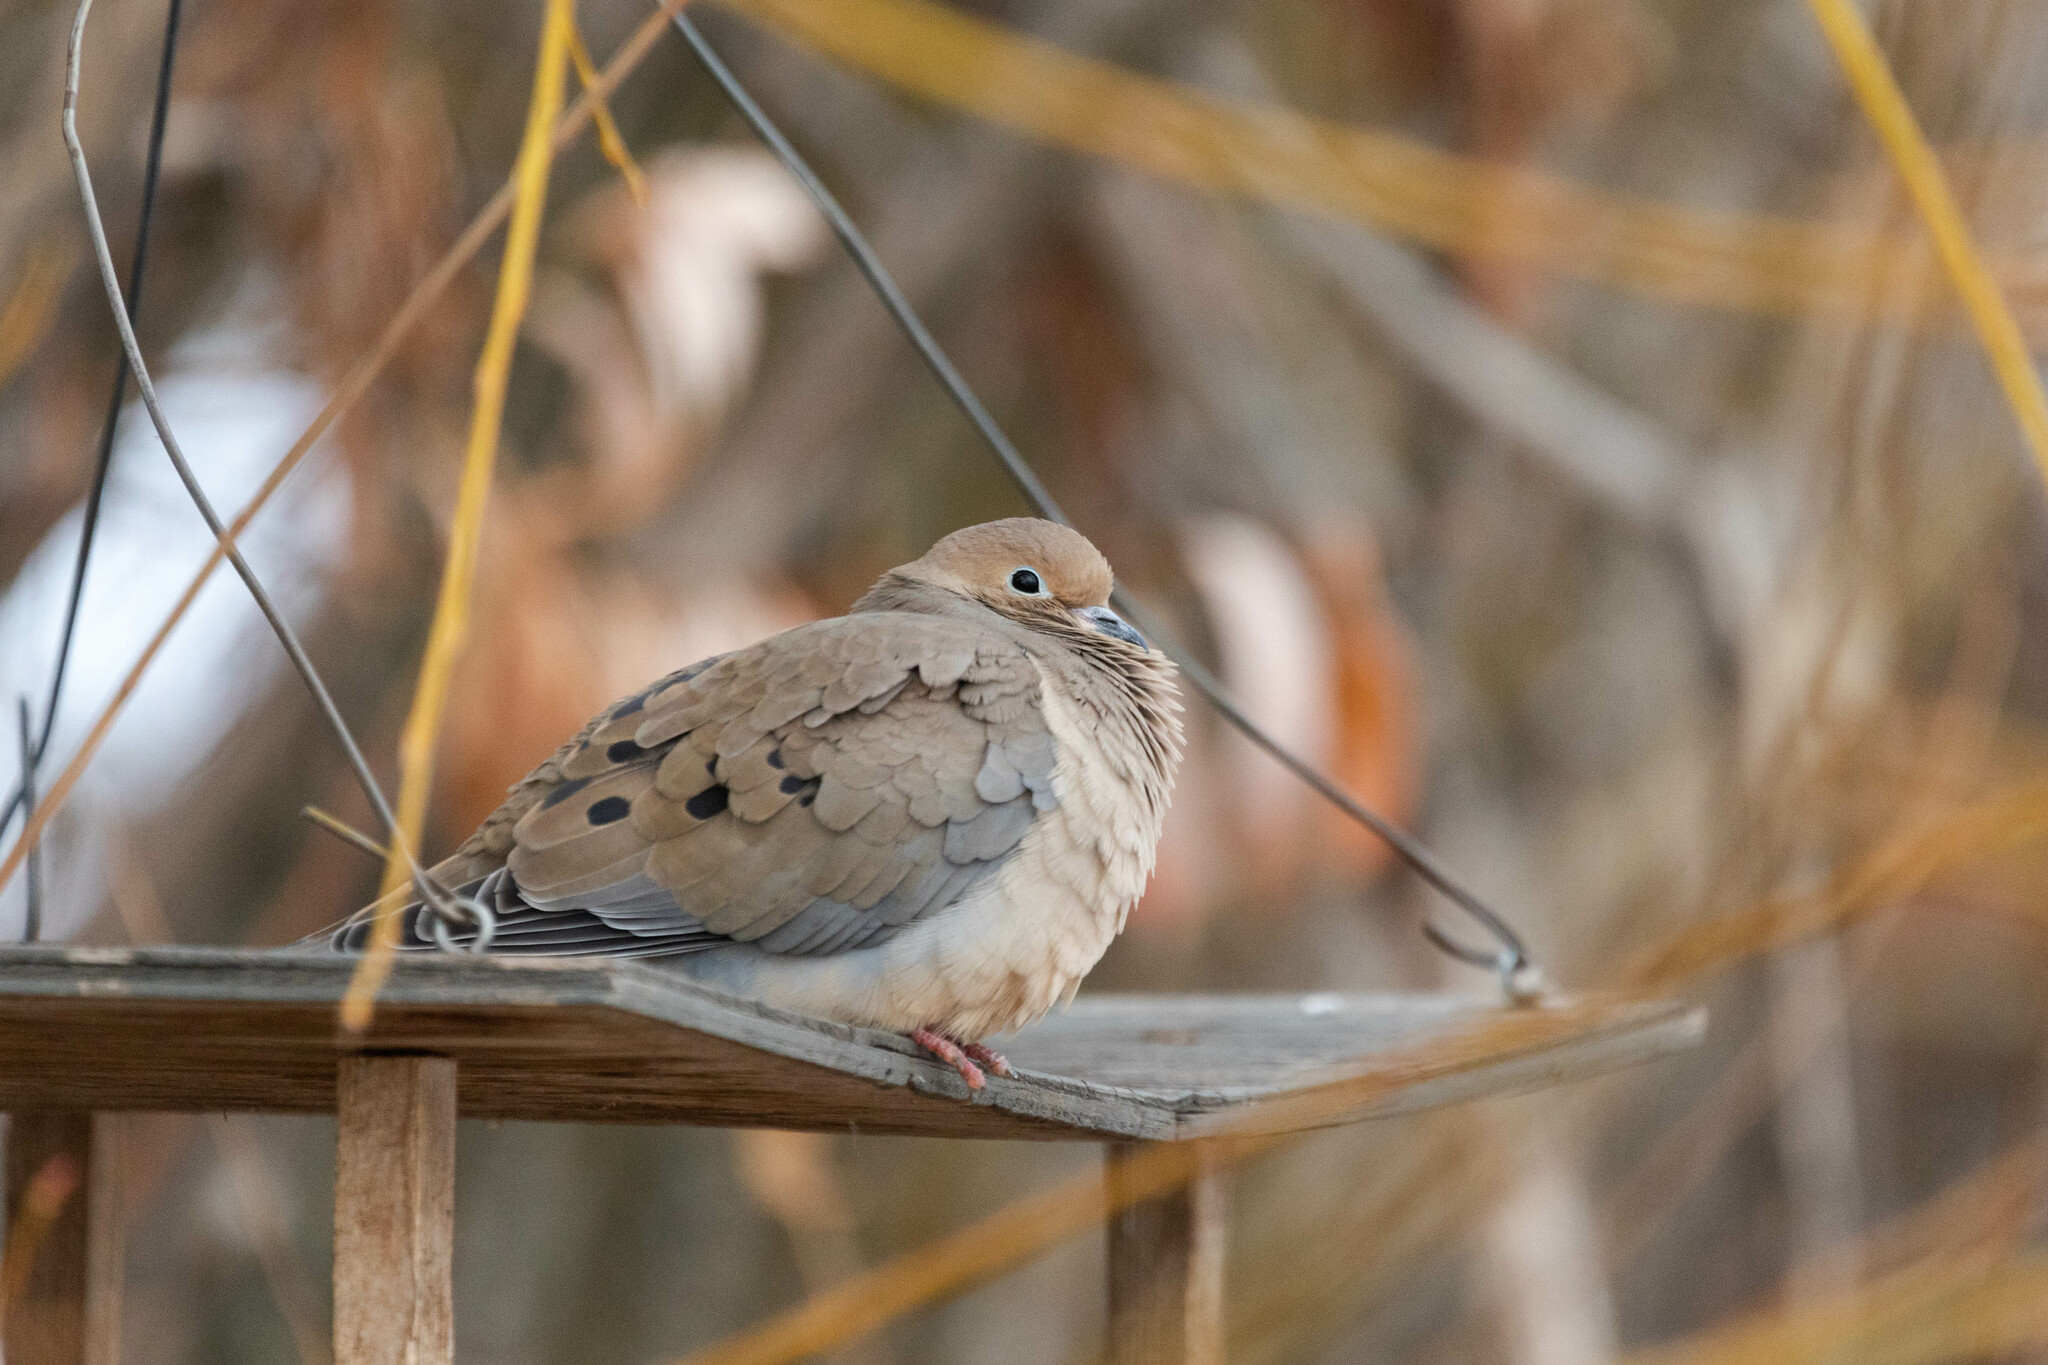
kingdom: Animalia
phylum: Chordata
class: Aves
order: Columbiformes
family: Columbidae
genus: Zenaida
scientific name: Zenaida macroura
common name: Mourning dove
